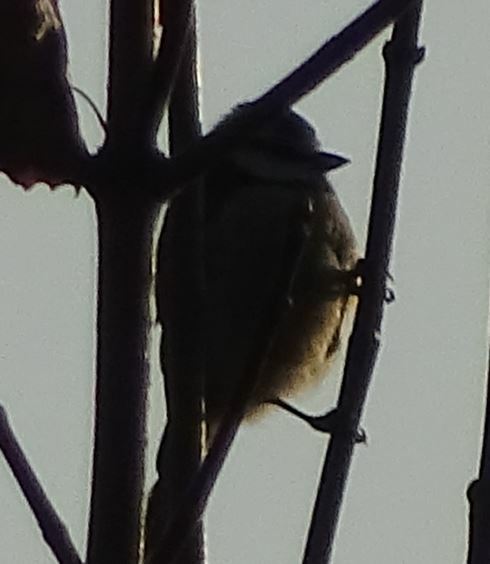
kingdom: Animalia
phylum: Chordata
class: Aves
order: Passeriformes
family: Paridae
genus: Cyanistes
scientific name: Cyanistes caeruleus
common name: Eurasian blue tit
